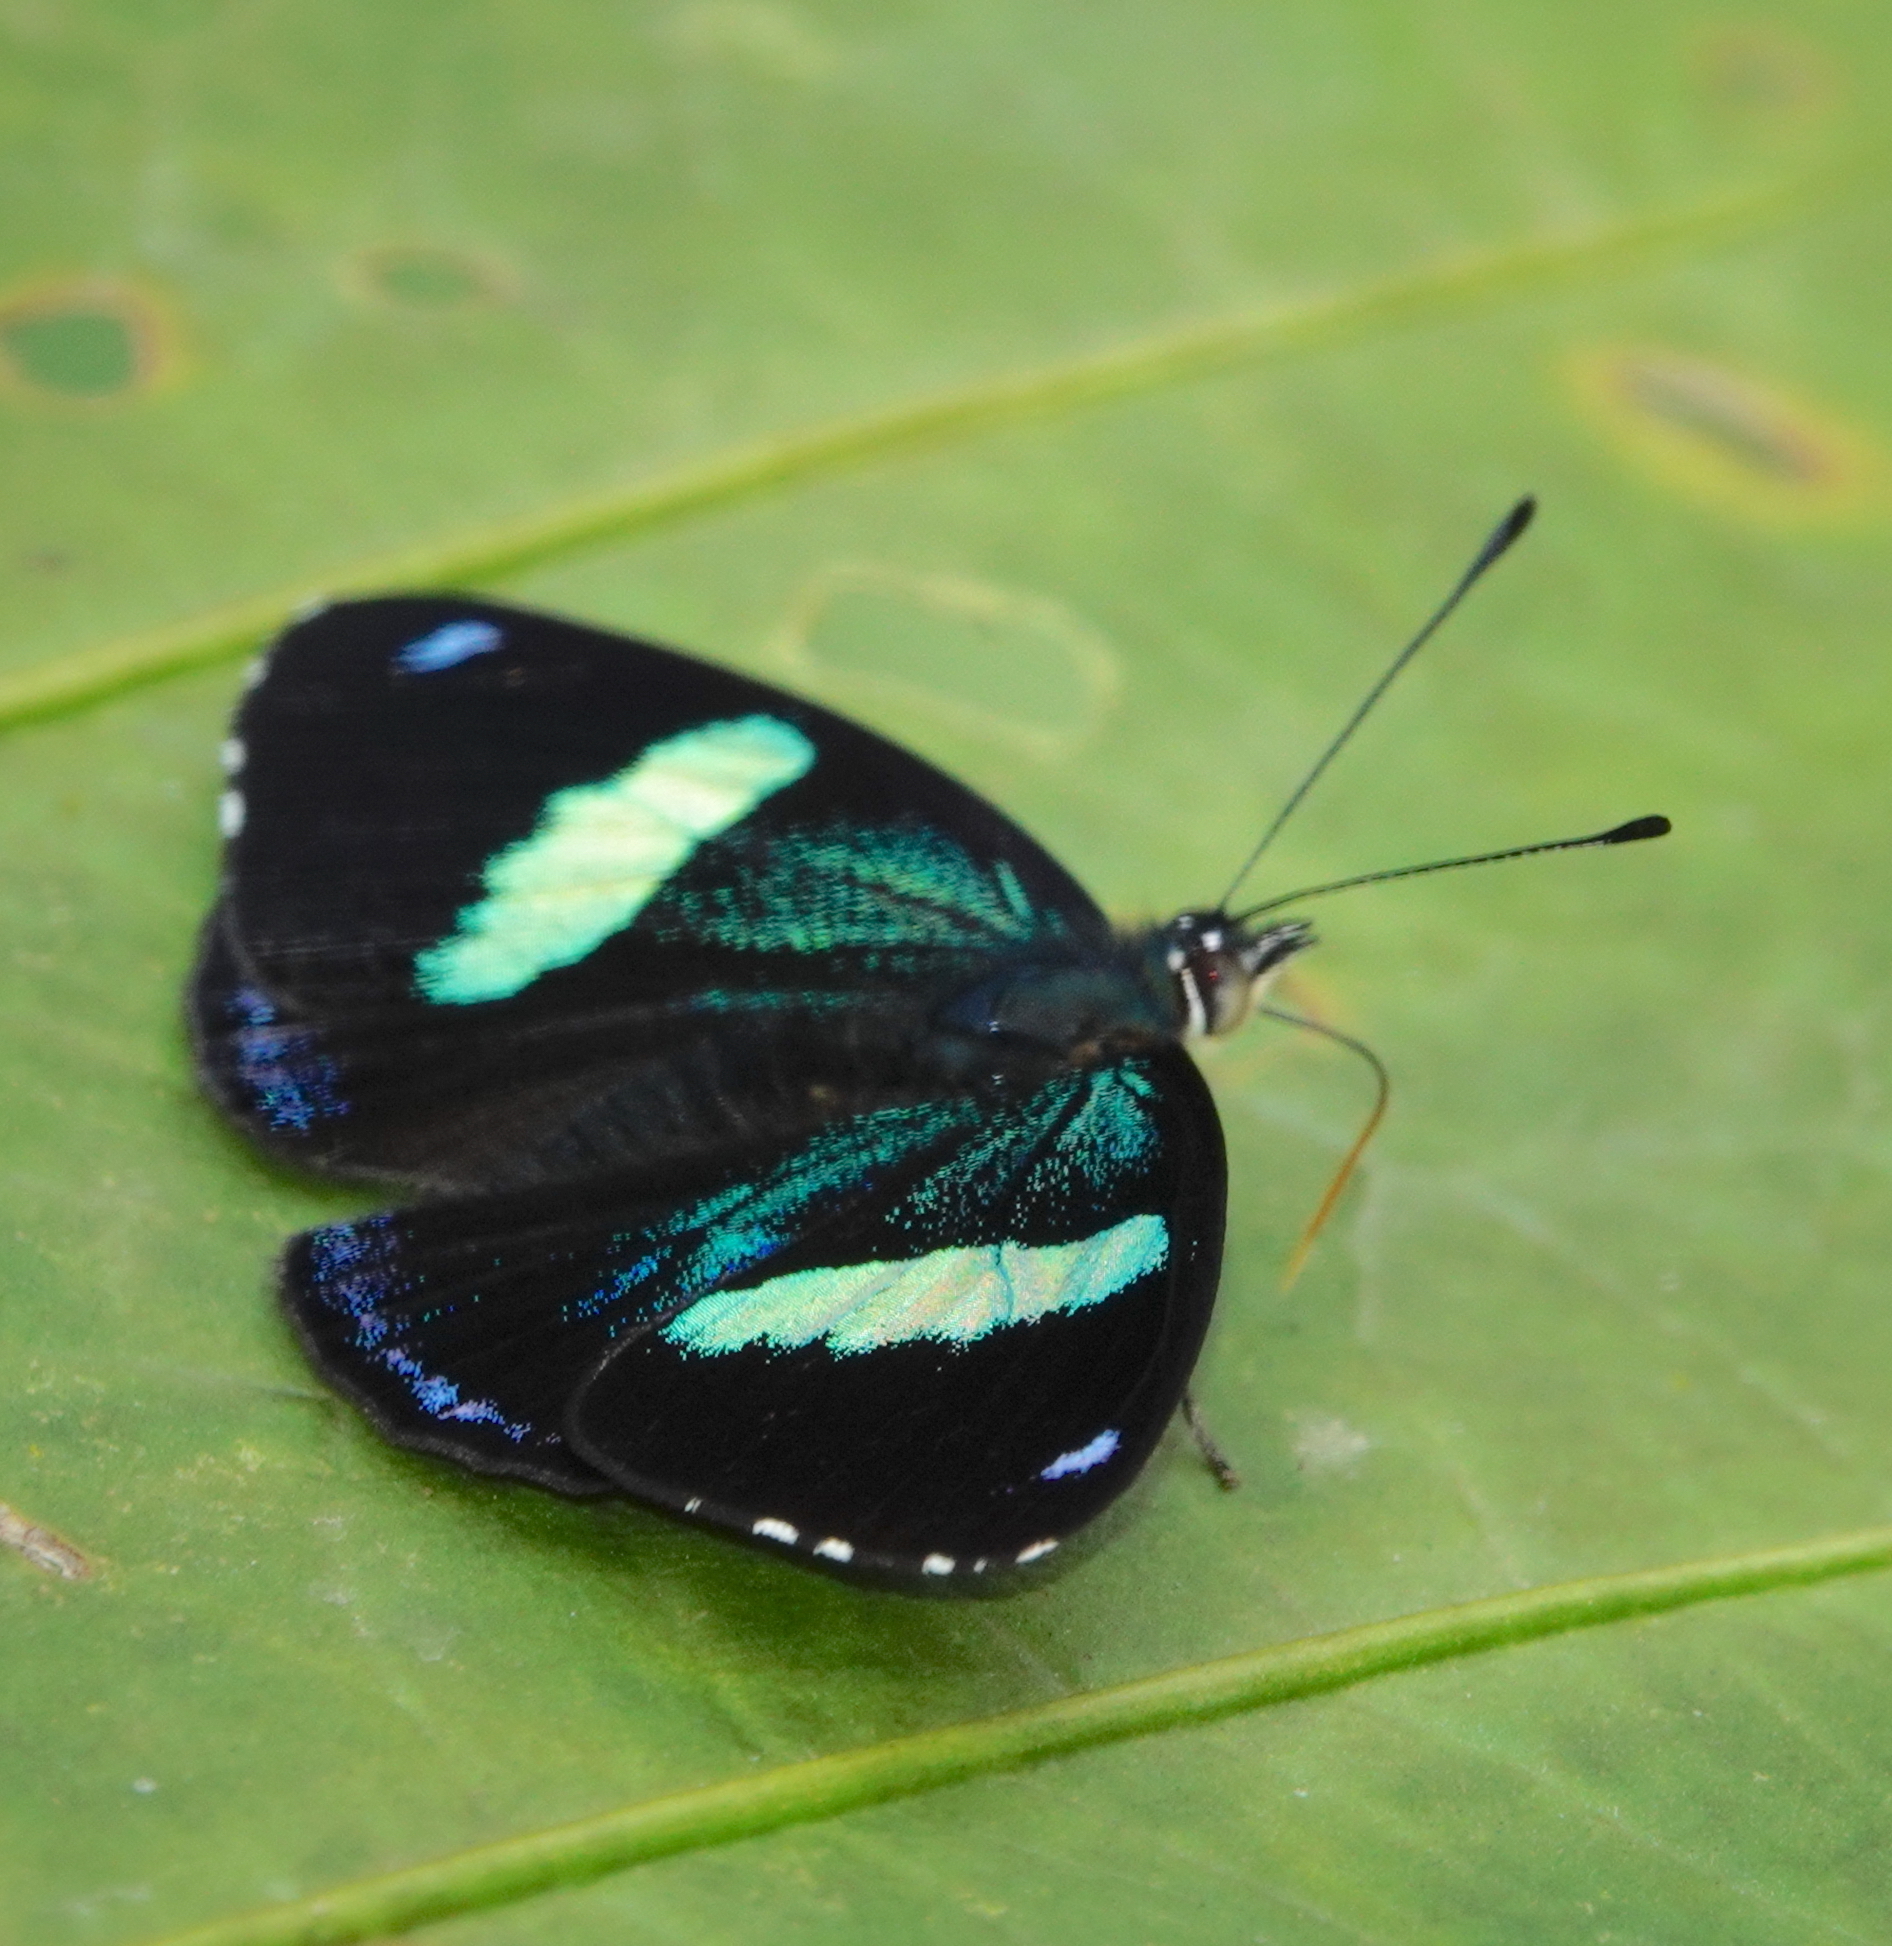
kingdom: Animalia
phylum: Arthropoda
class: Insecta
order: Lepidoptera
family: Nymphalidae
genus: Perisama
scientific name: Perisama oppelii
